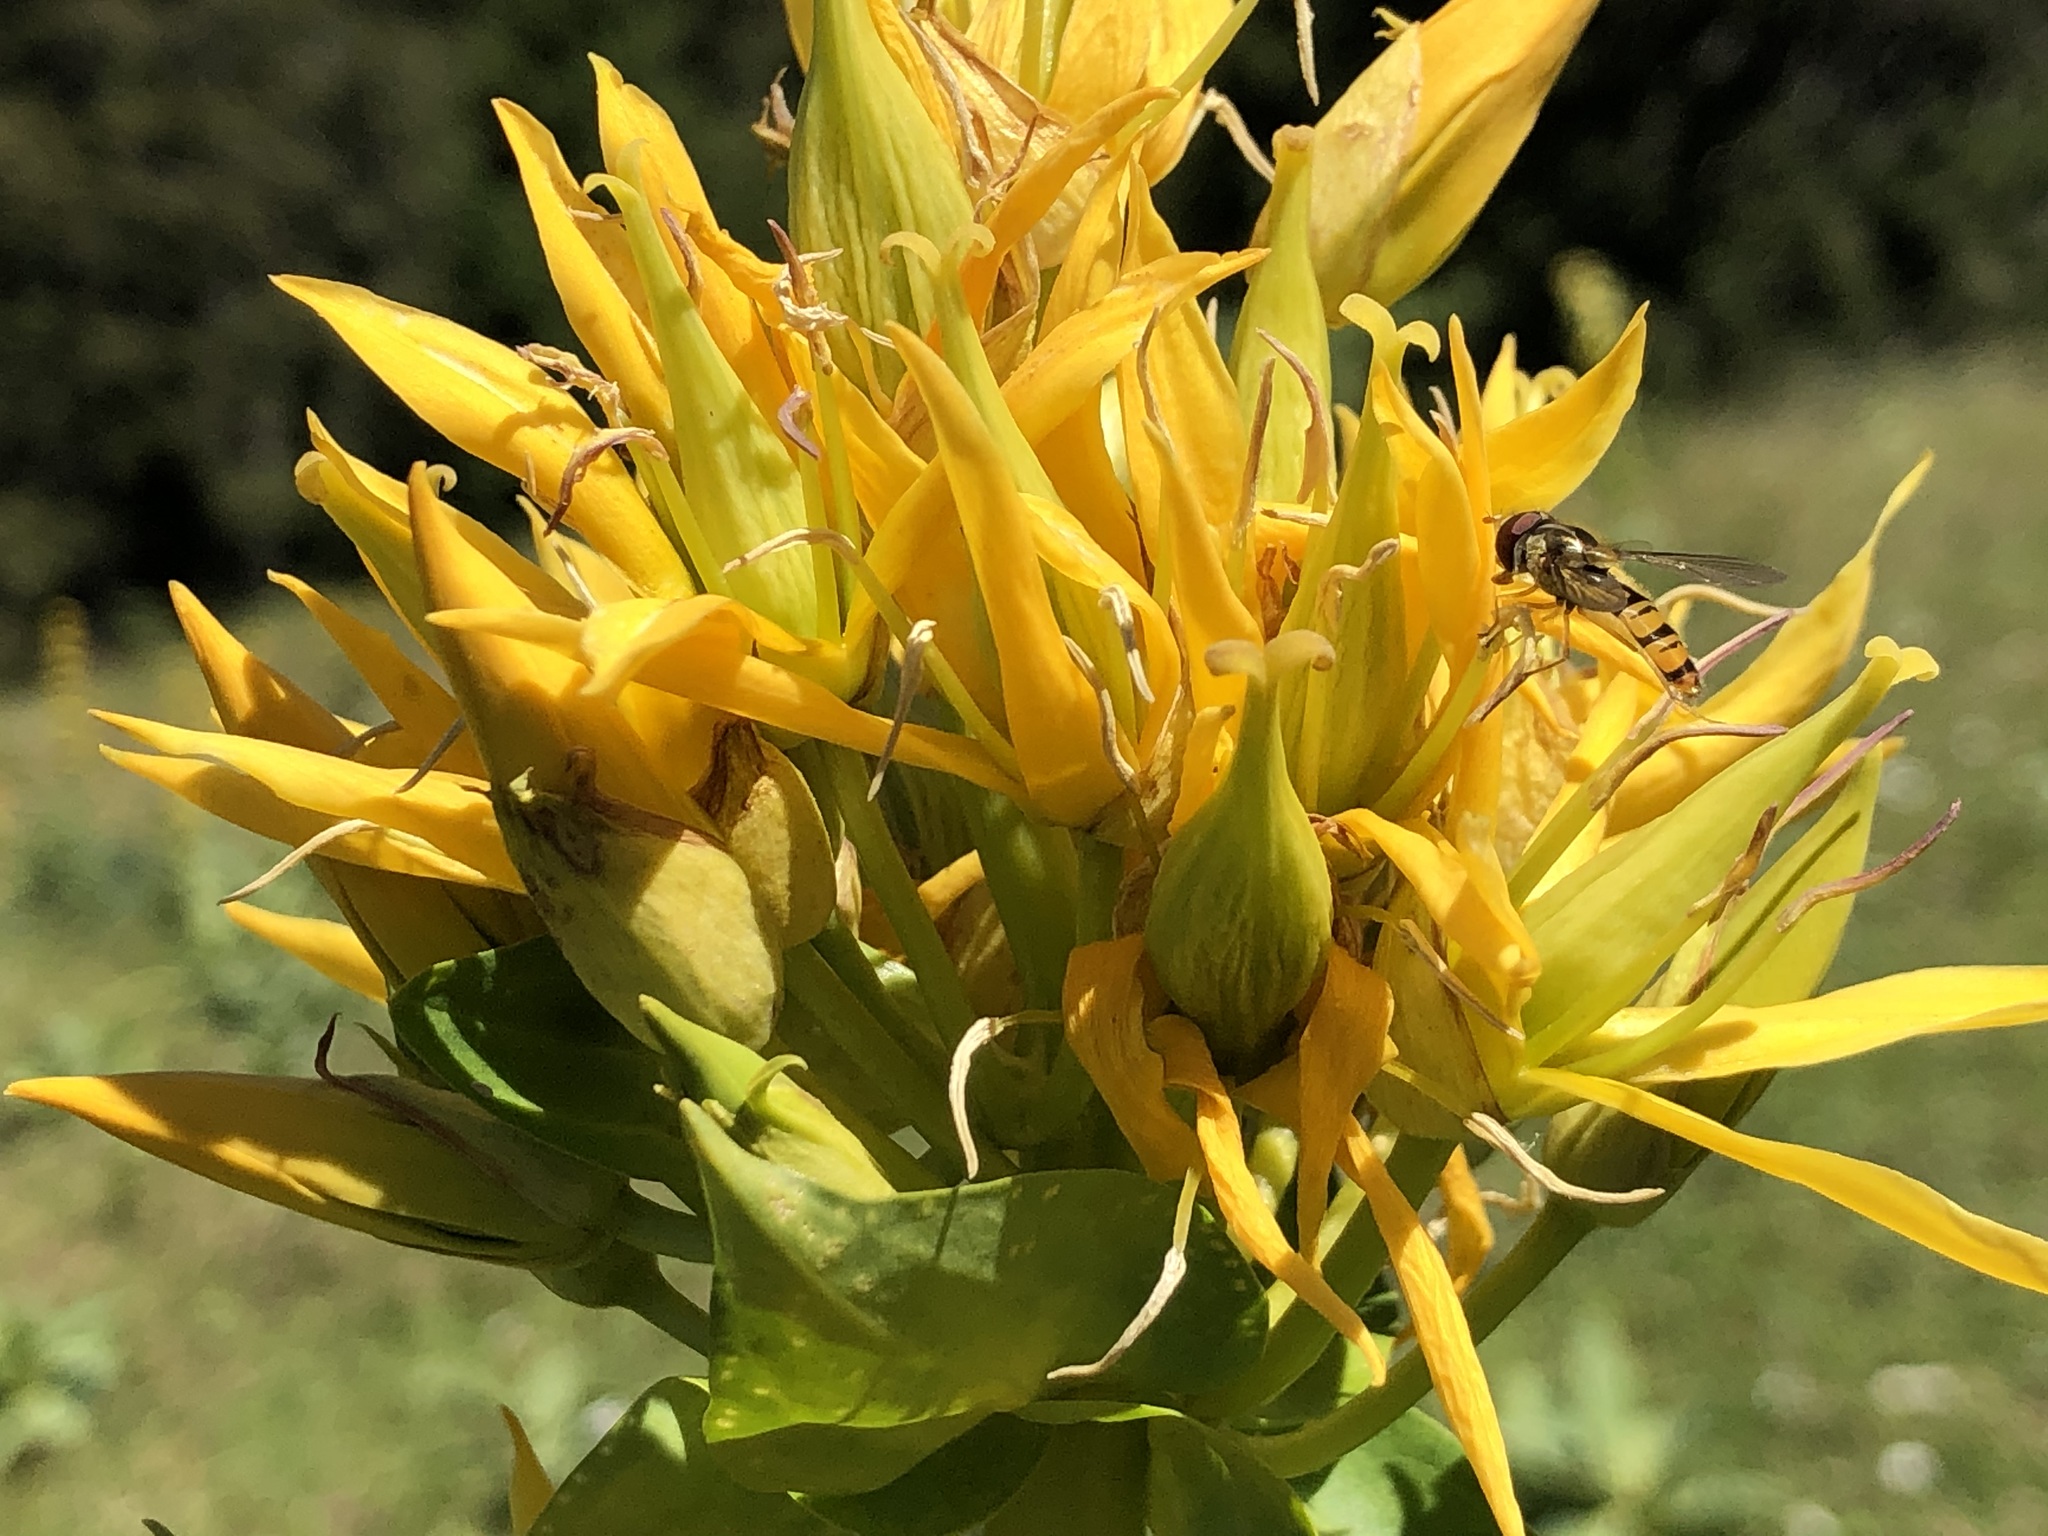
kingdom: Animalia
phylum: Arthropoda
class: Insecta
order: Diptera
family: Syrphidae
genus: Episyrphus
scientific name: Episyrphus balteatus
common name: Marmalade hoverfly
